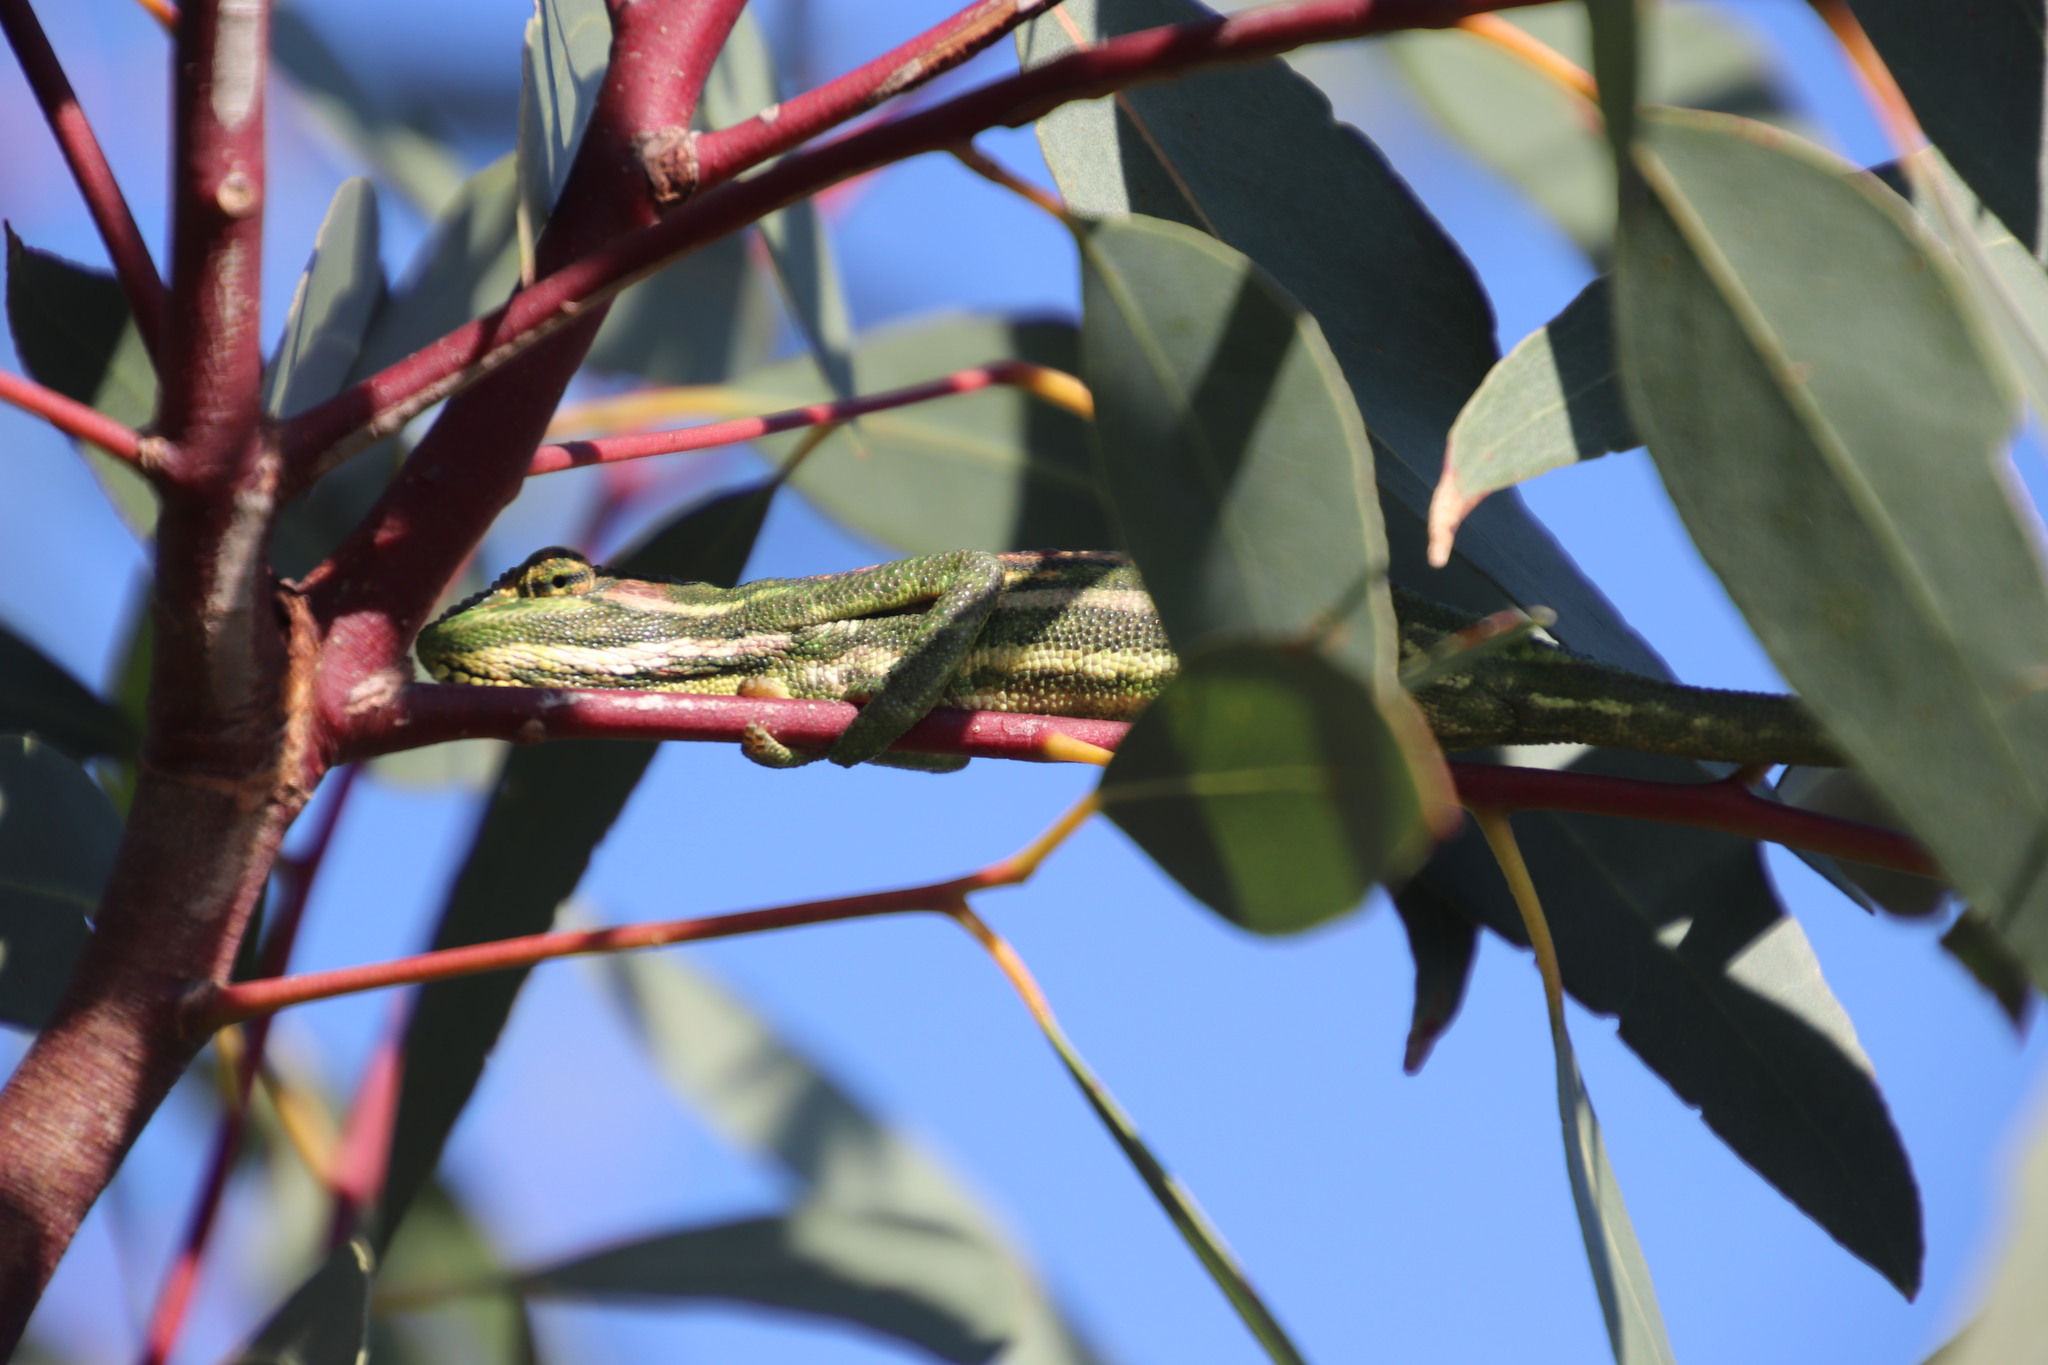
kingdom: Animalia
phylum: Chordata
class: Squamata
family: Chamaeleonidae
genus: Bradypodion
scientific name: Bradypodion pumilum
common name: Cape dwarf chameleon
